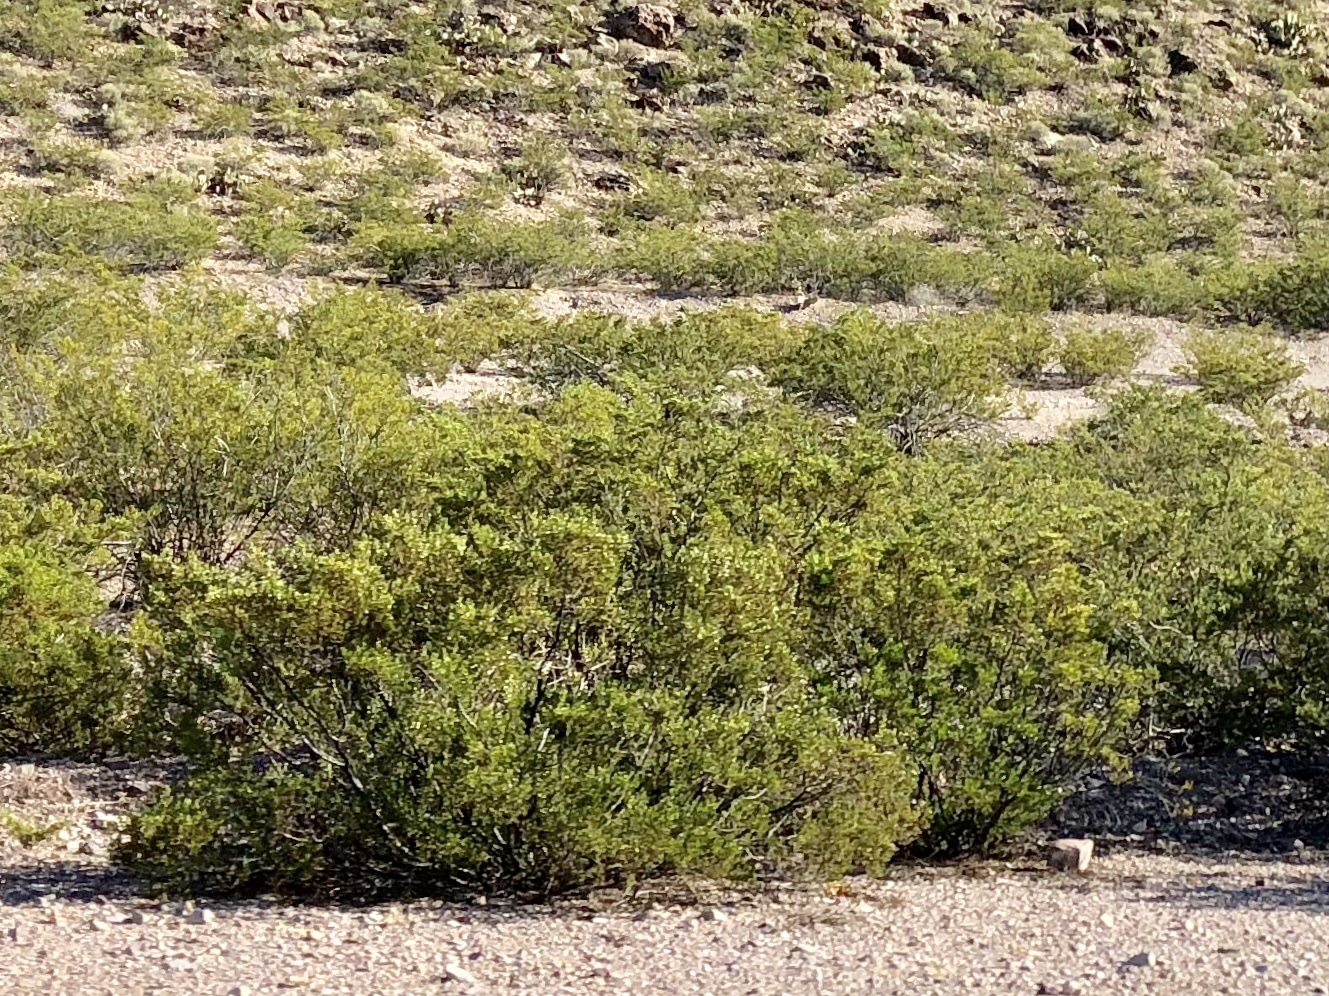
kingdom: Plantae
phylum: Tracheophyta
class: Magnoliopsida
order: Zygophyllales
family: Zygophyllaceae
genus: Larrea
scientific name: Larrea tridentata
